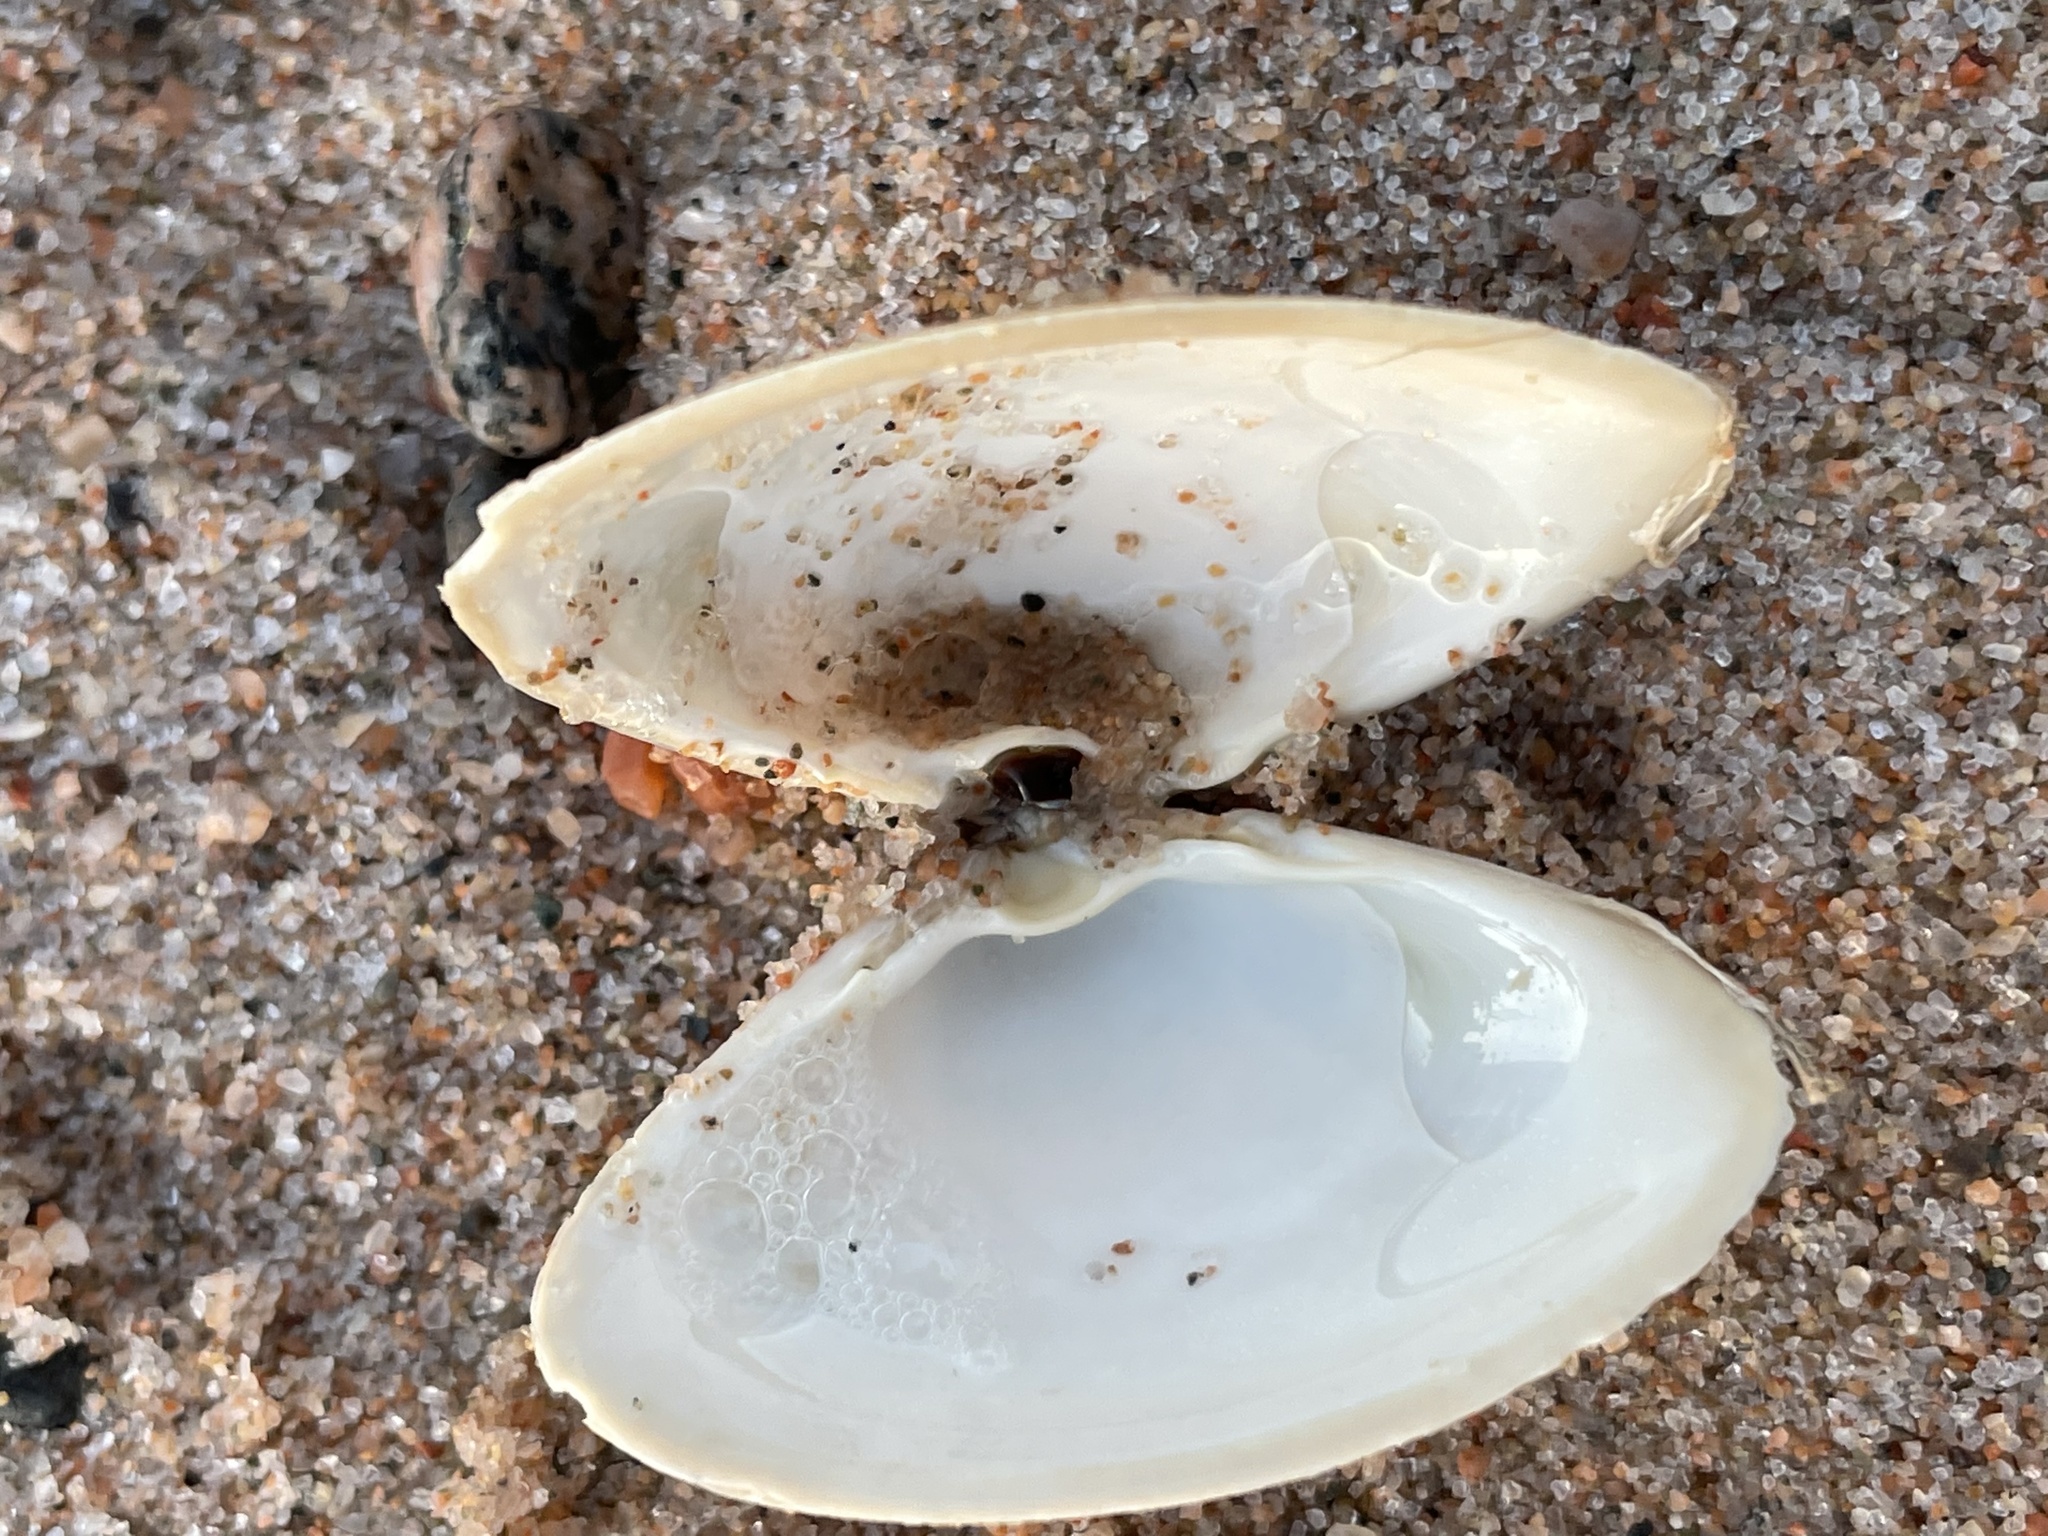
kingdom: Animalia
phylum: Mollusca
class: Bivalvia
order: Venerida
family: Mactridae
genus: Spisula
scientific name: Spisula solidissima
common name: Atlantic surf clam
